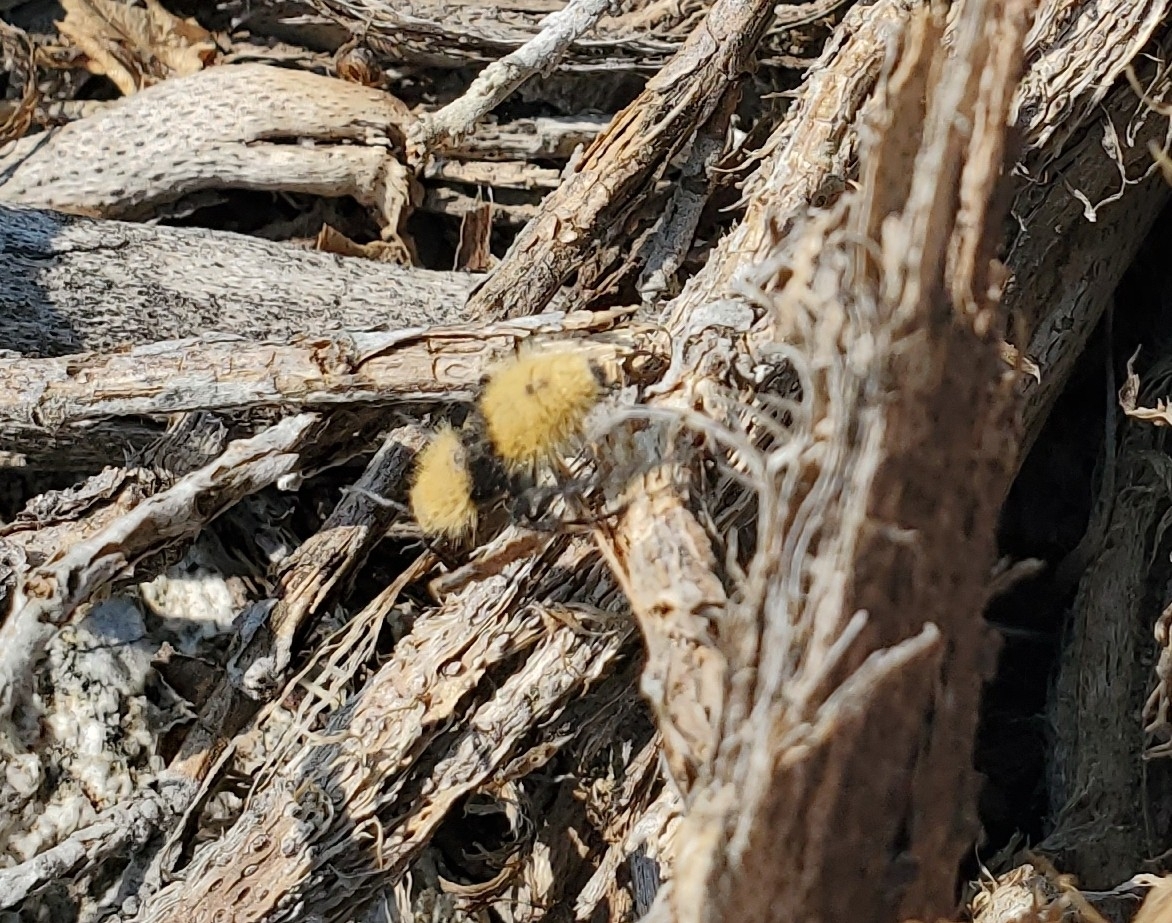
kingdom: Animalia
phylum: Arthropoda
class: Insecta
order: Hymenoptera
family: Mutillidae
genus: Dasymutilla
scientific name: Dasymutilla
